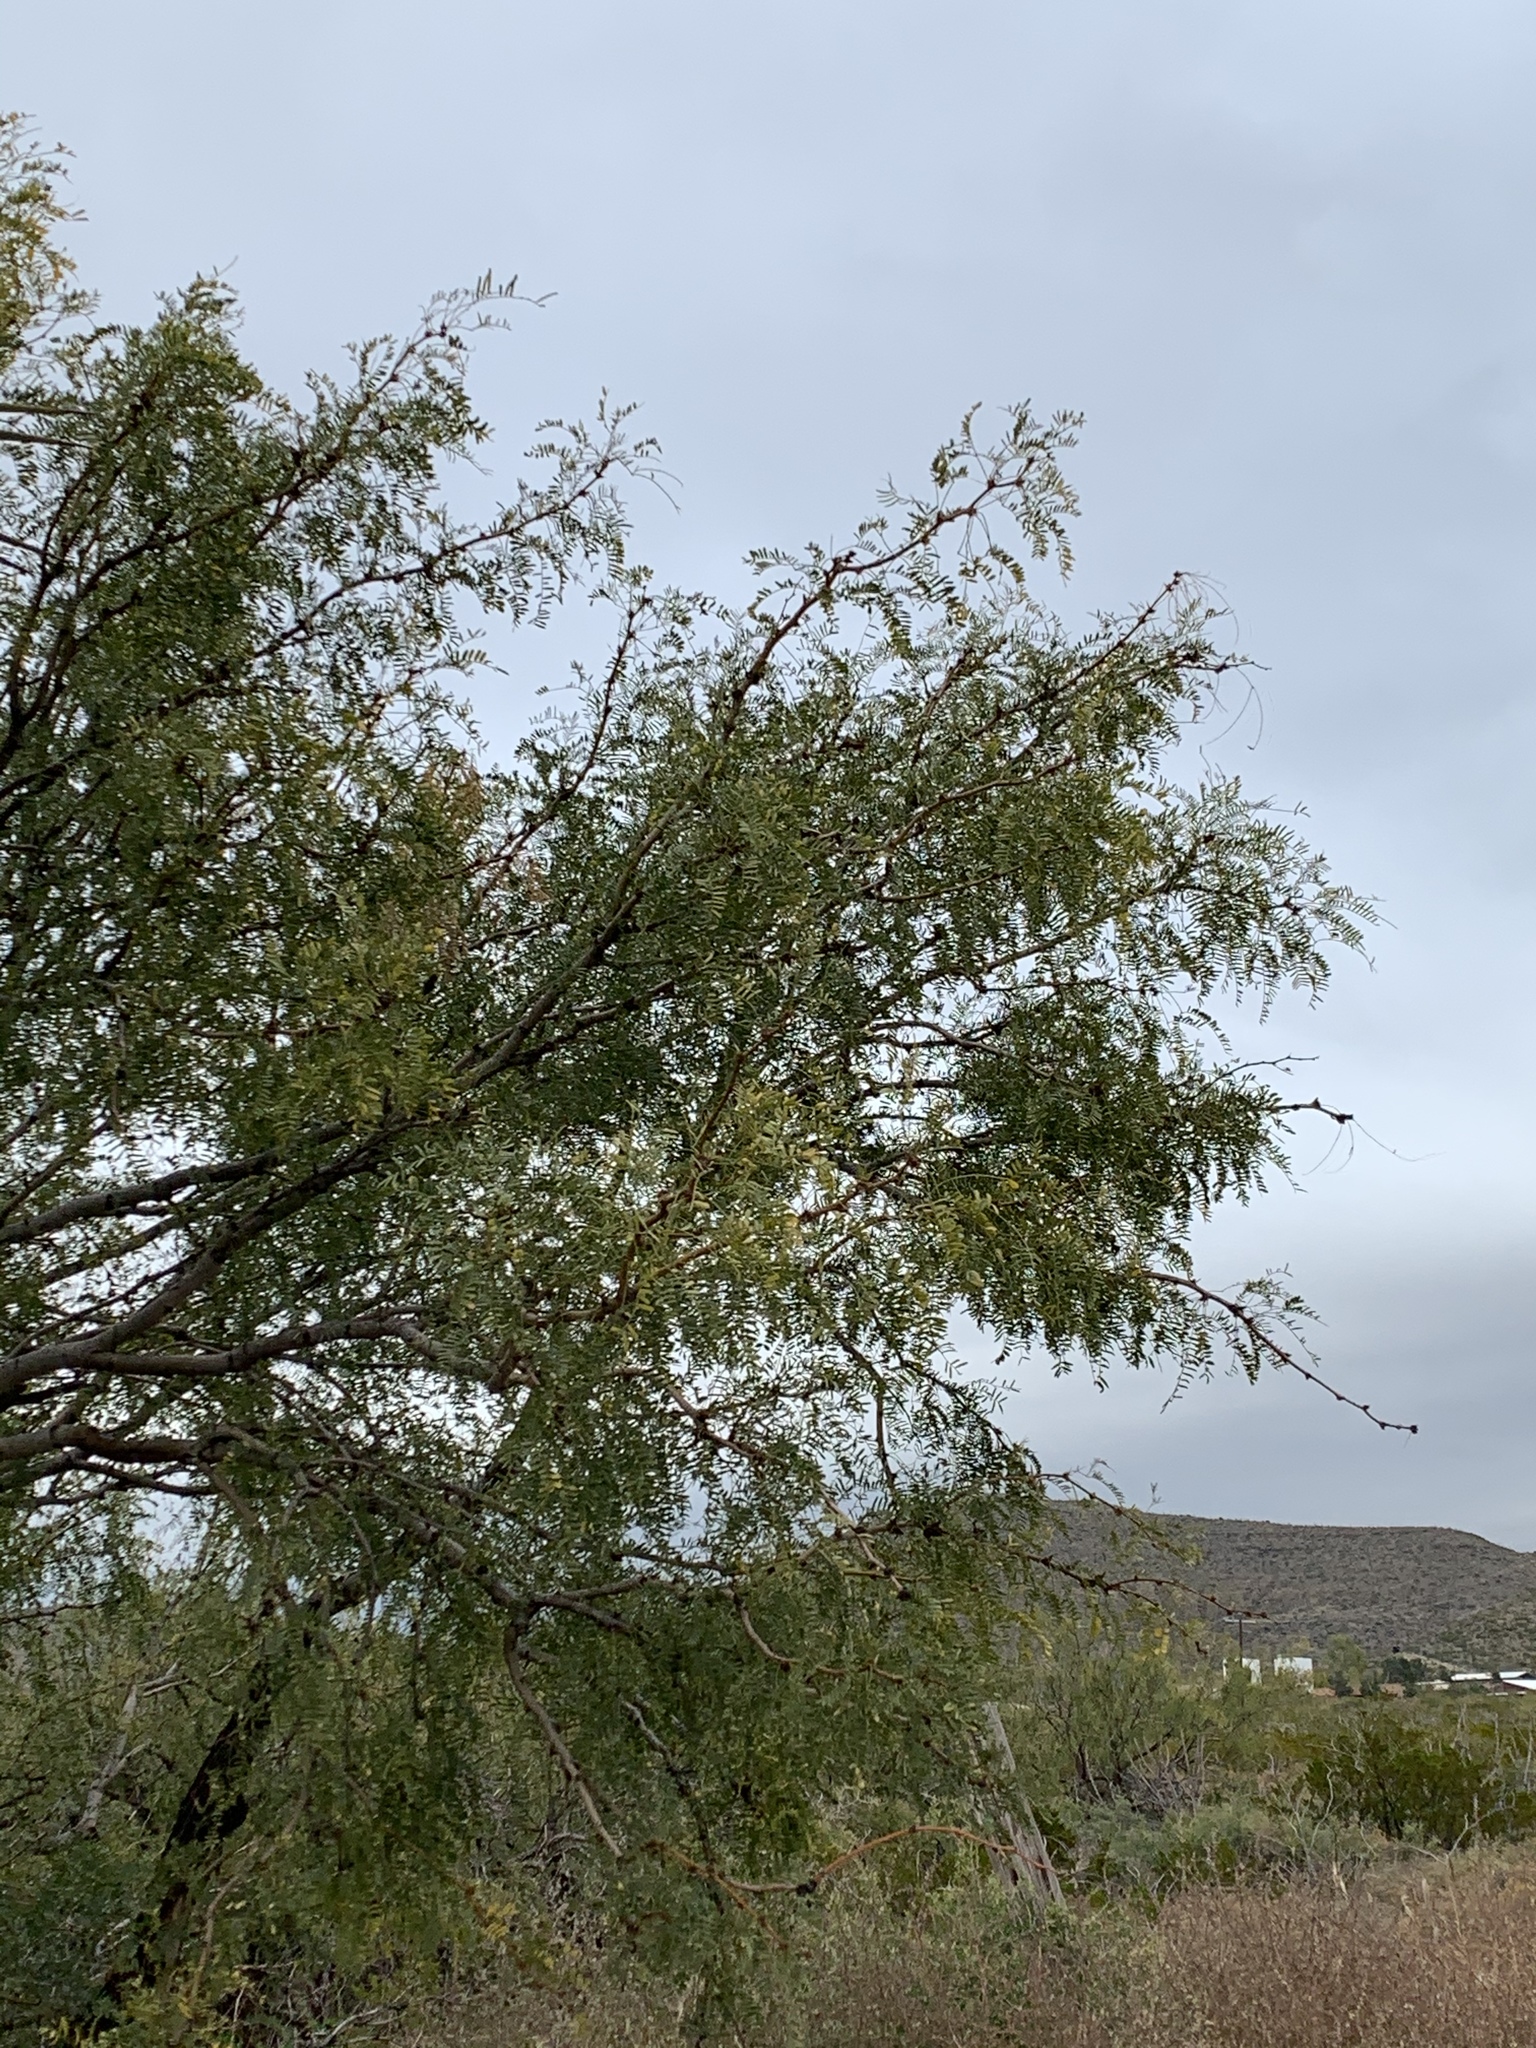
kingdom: Plantae
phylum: Tracheophyta
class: Magnoliopsida
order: Fabales
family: Fabaceae
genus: Prosopis
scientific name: Prosopis glandulosa
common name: Honey mesquite
